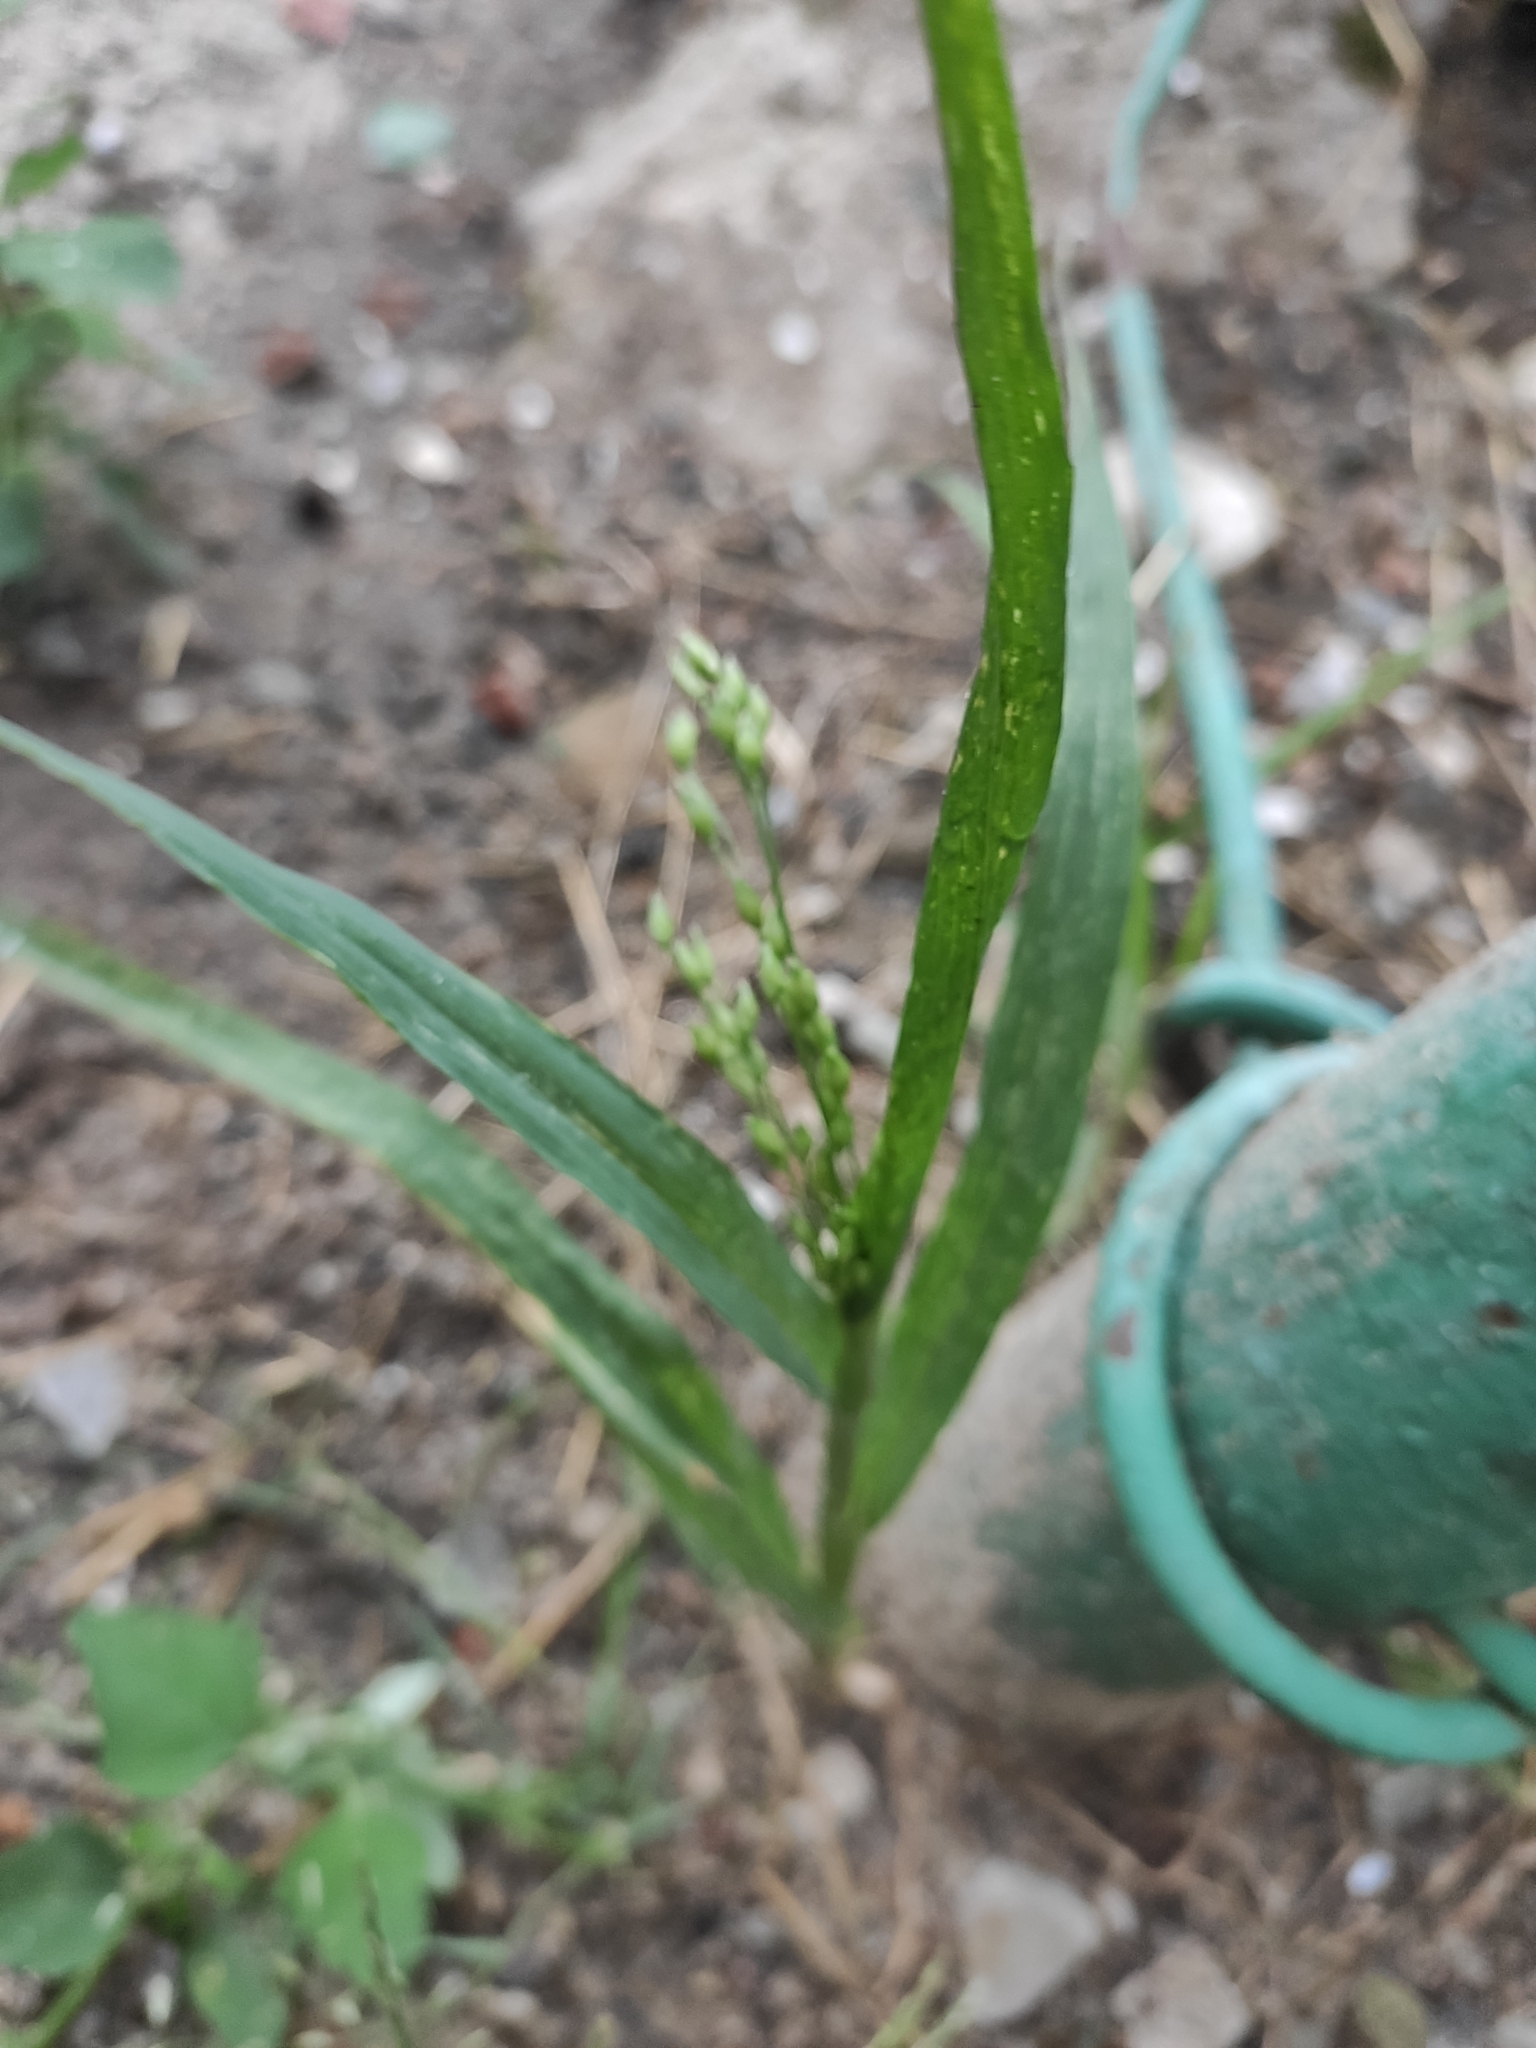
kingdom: Plantae
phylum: Tracheophyta
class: Liliopsida
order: Poales
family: Poaceae
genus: Panicum
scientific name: Panicum miliaceum
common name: Common millet
